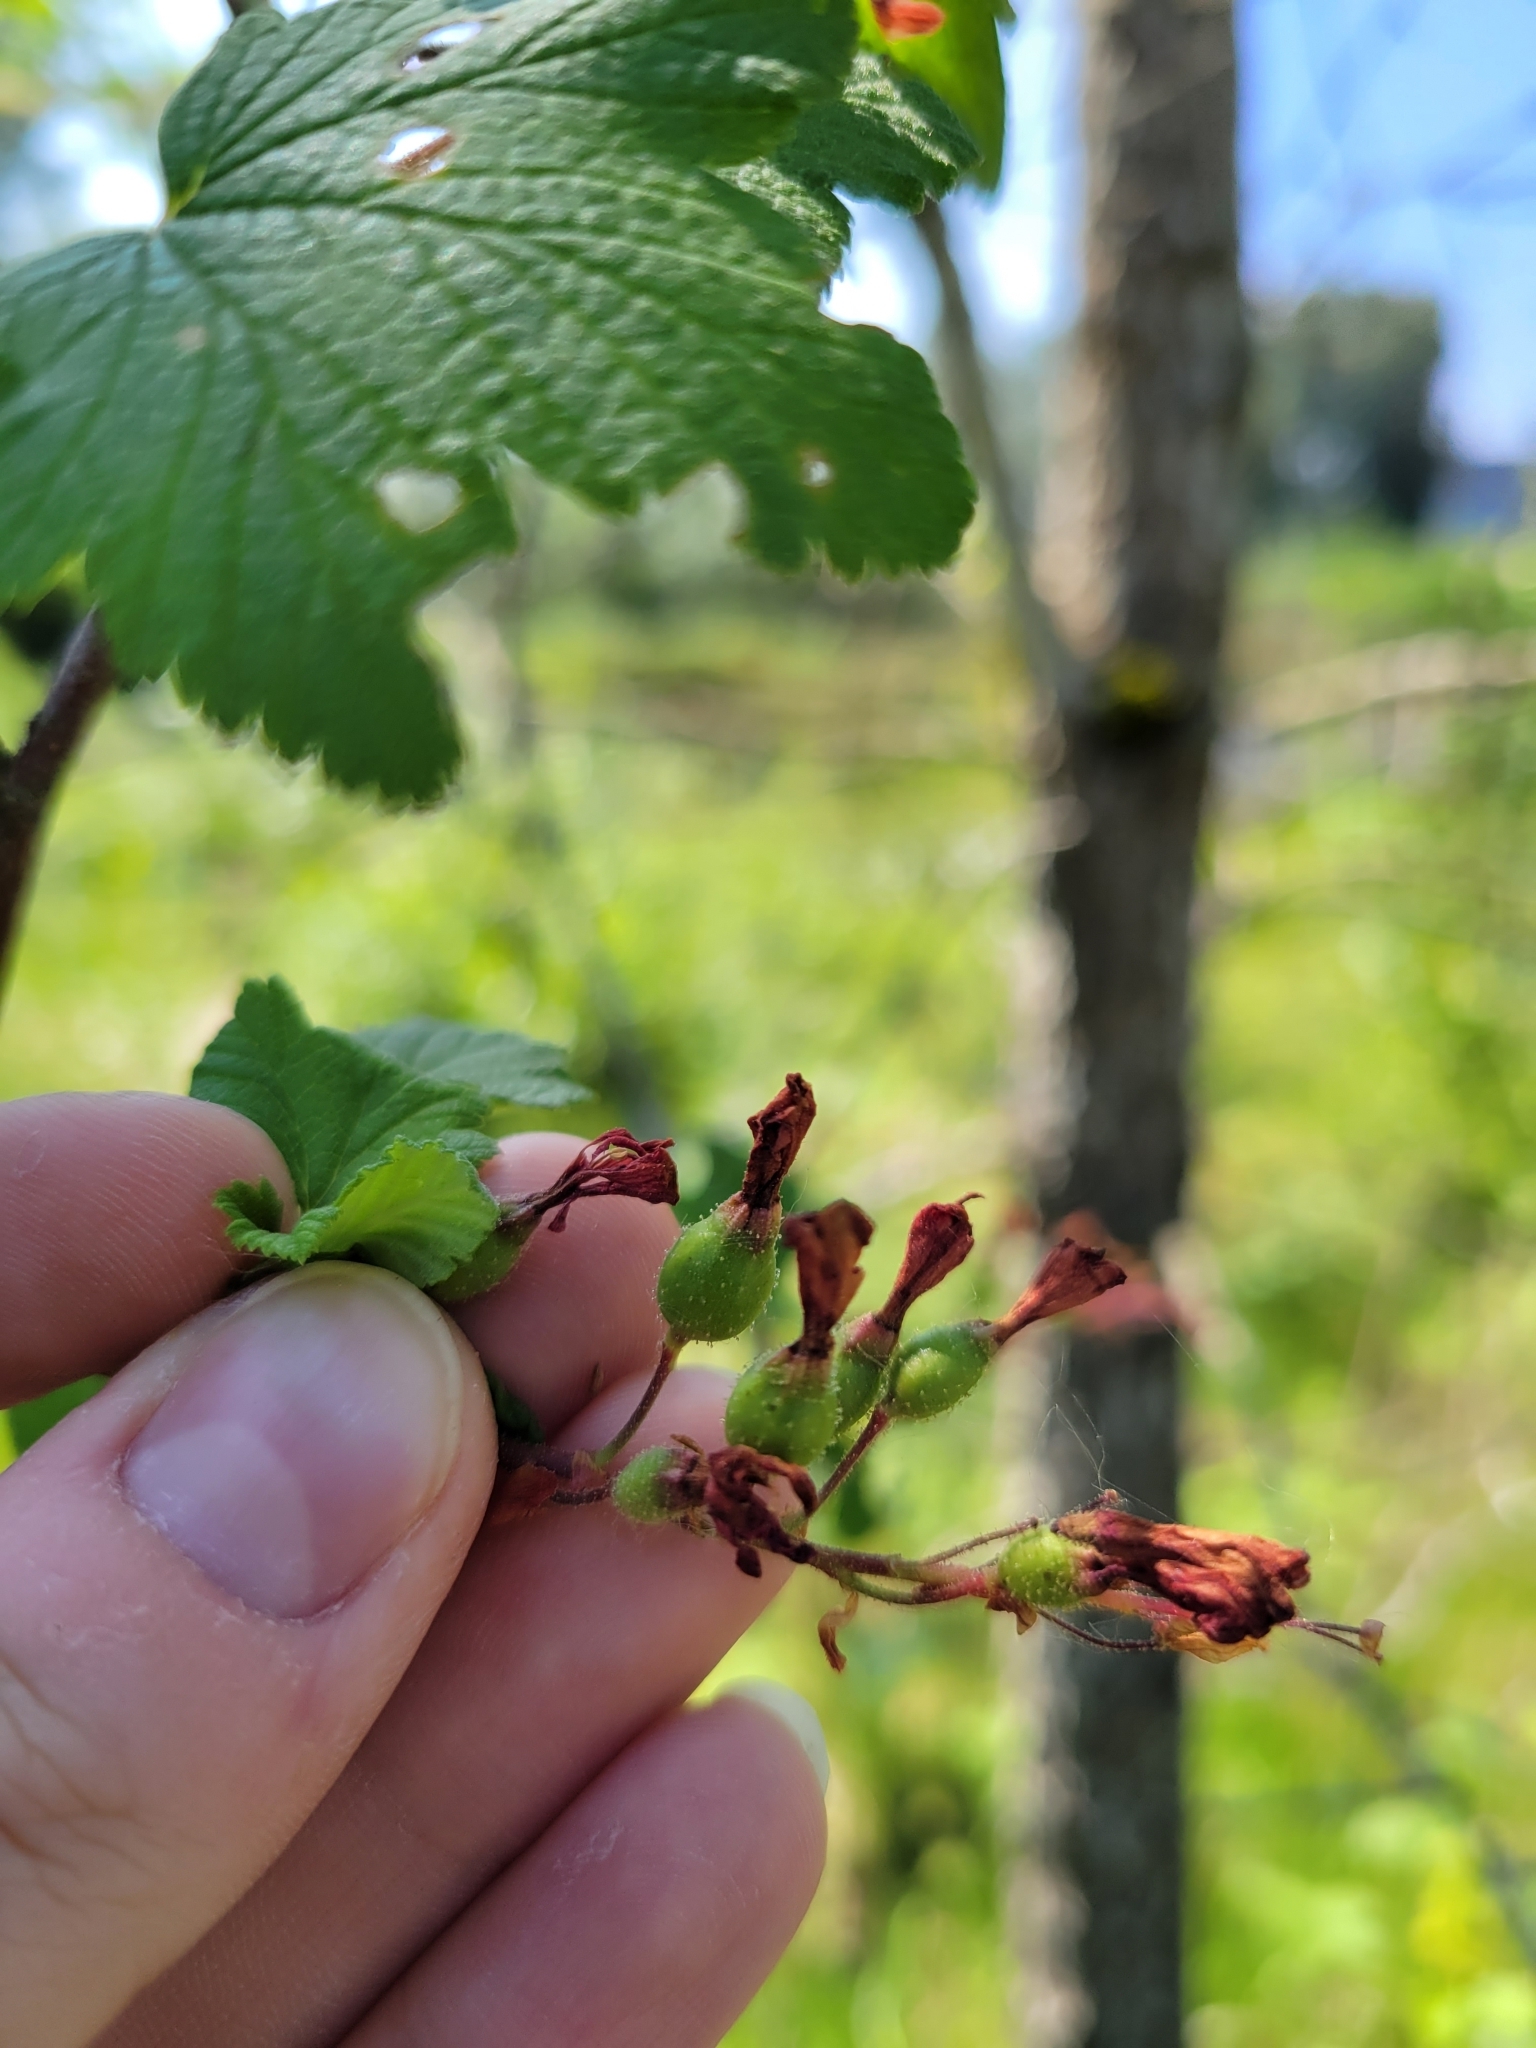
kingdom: Plantae
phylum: Tracheophyta
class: Magnoliopsida
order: Saxifragales
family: Grossulariaceae
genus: Ribes
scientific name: Ribes sanguineum
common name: Flowering currant
